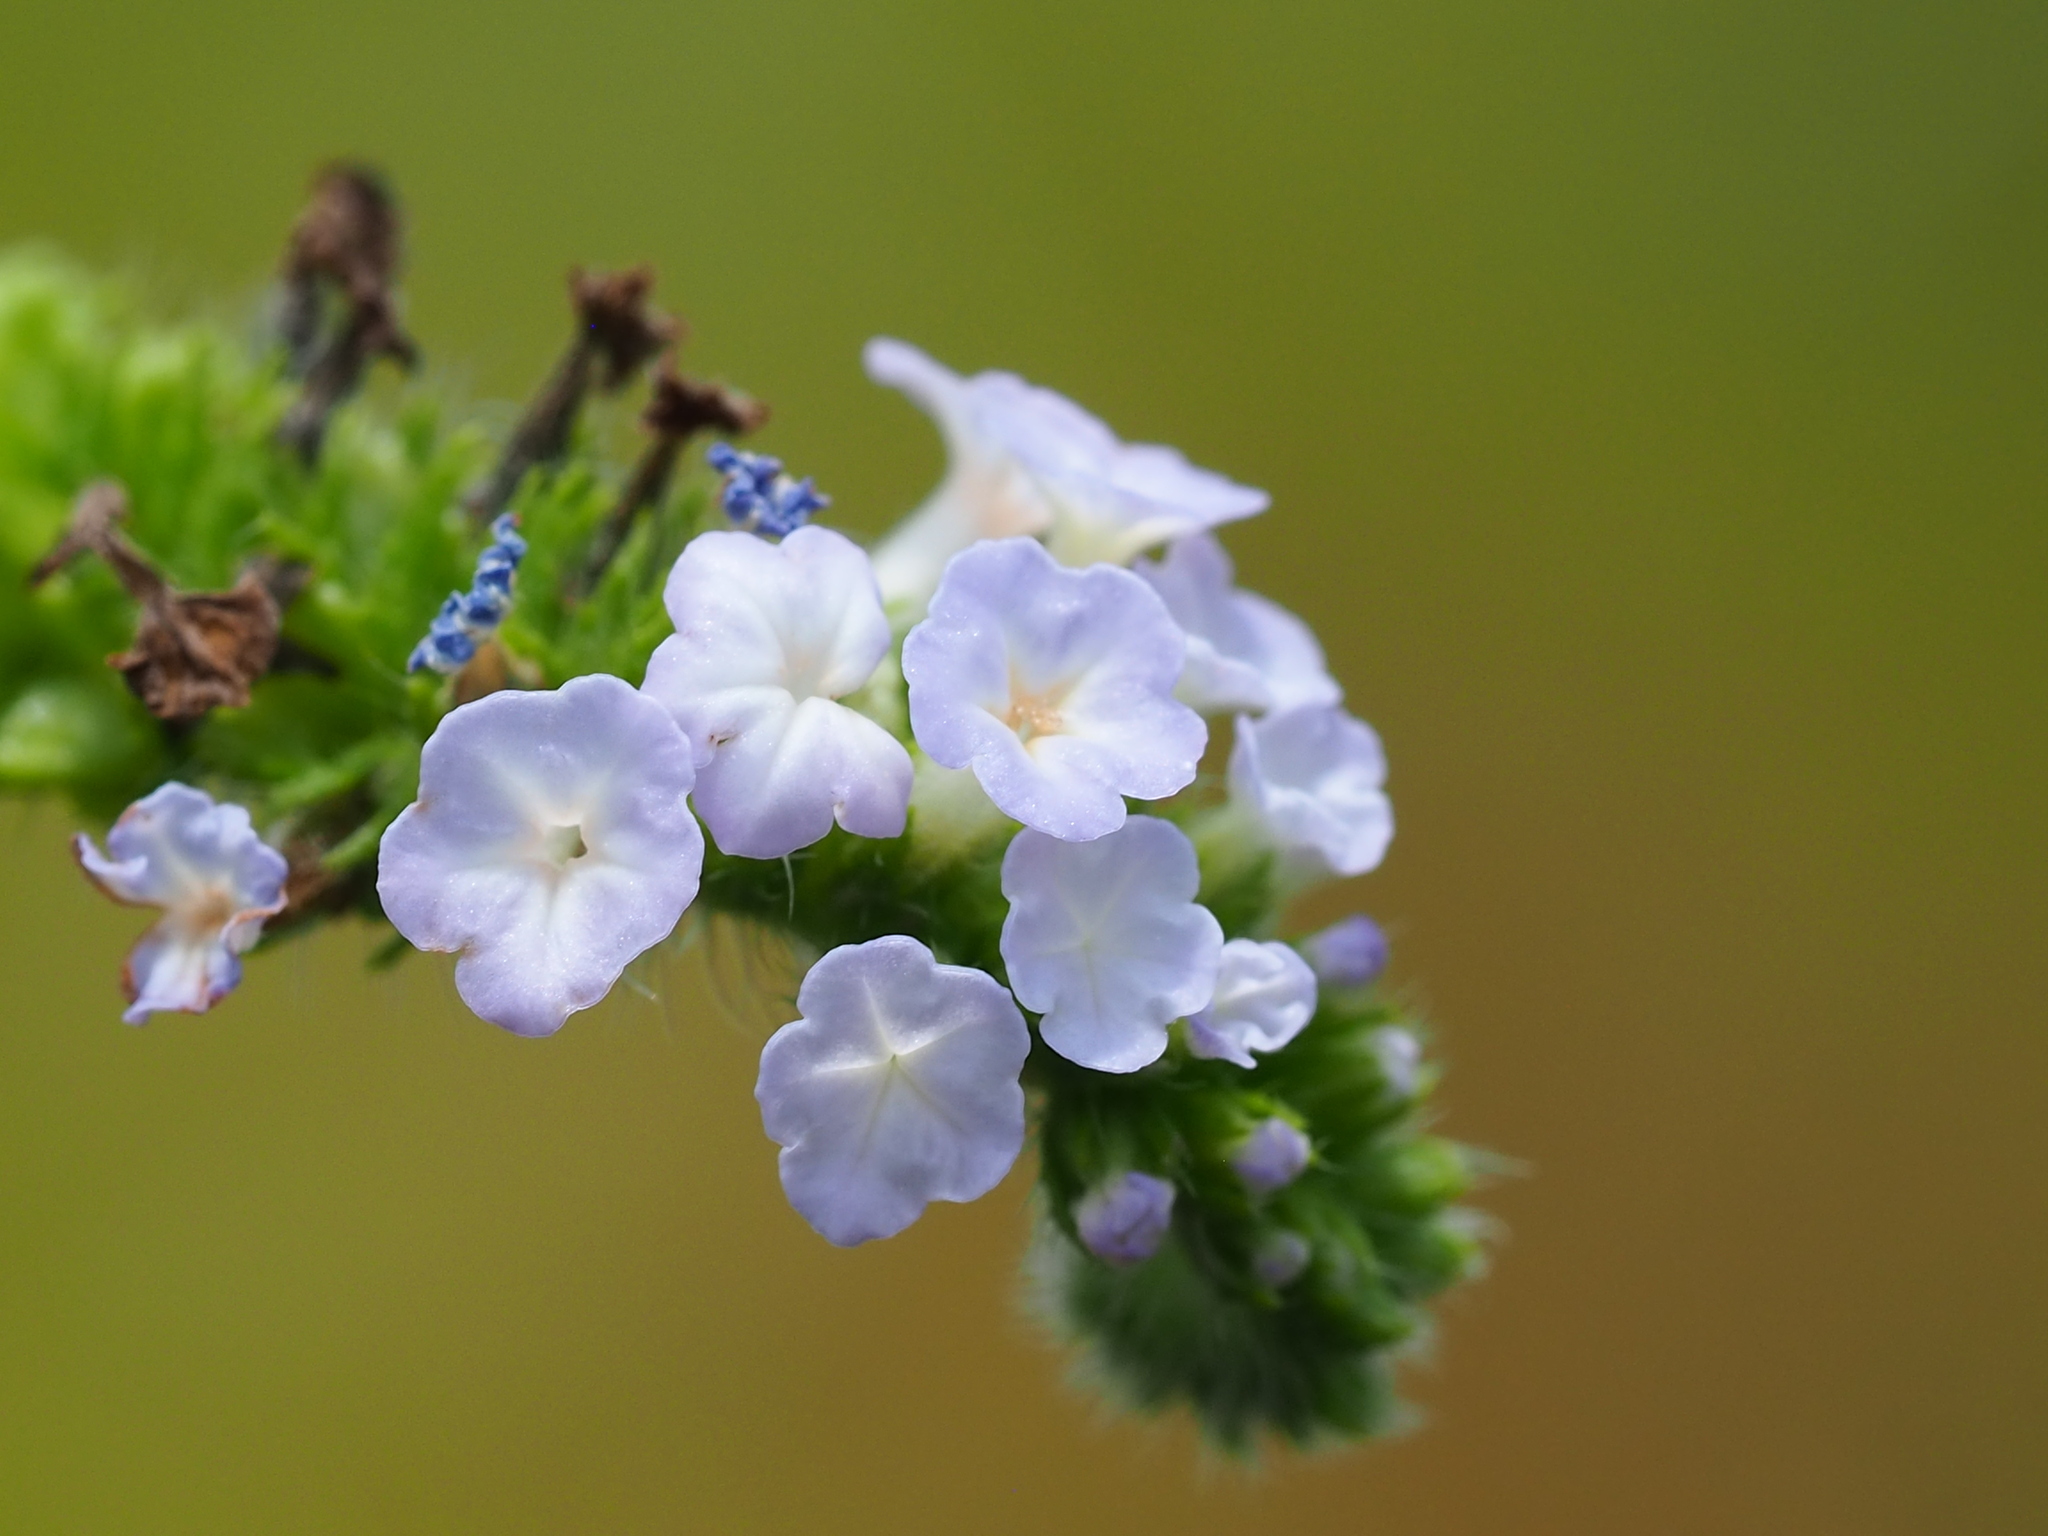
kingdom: Plantae
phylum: Tracheophyta
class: Magnoliopsida
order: Boraginales
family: Heliotropiaceae
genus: Heliotropium
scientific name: Heliotropium indicum
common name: Indian heliotrope
